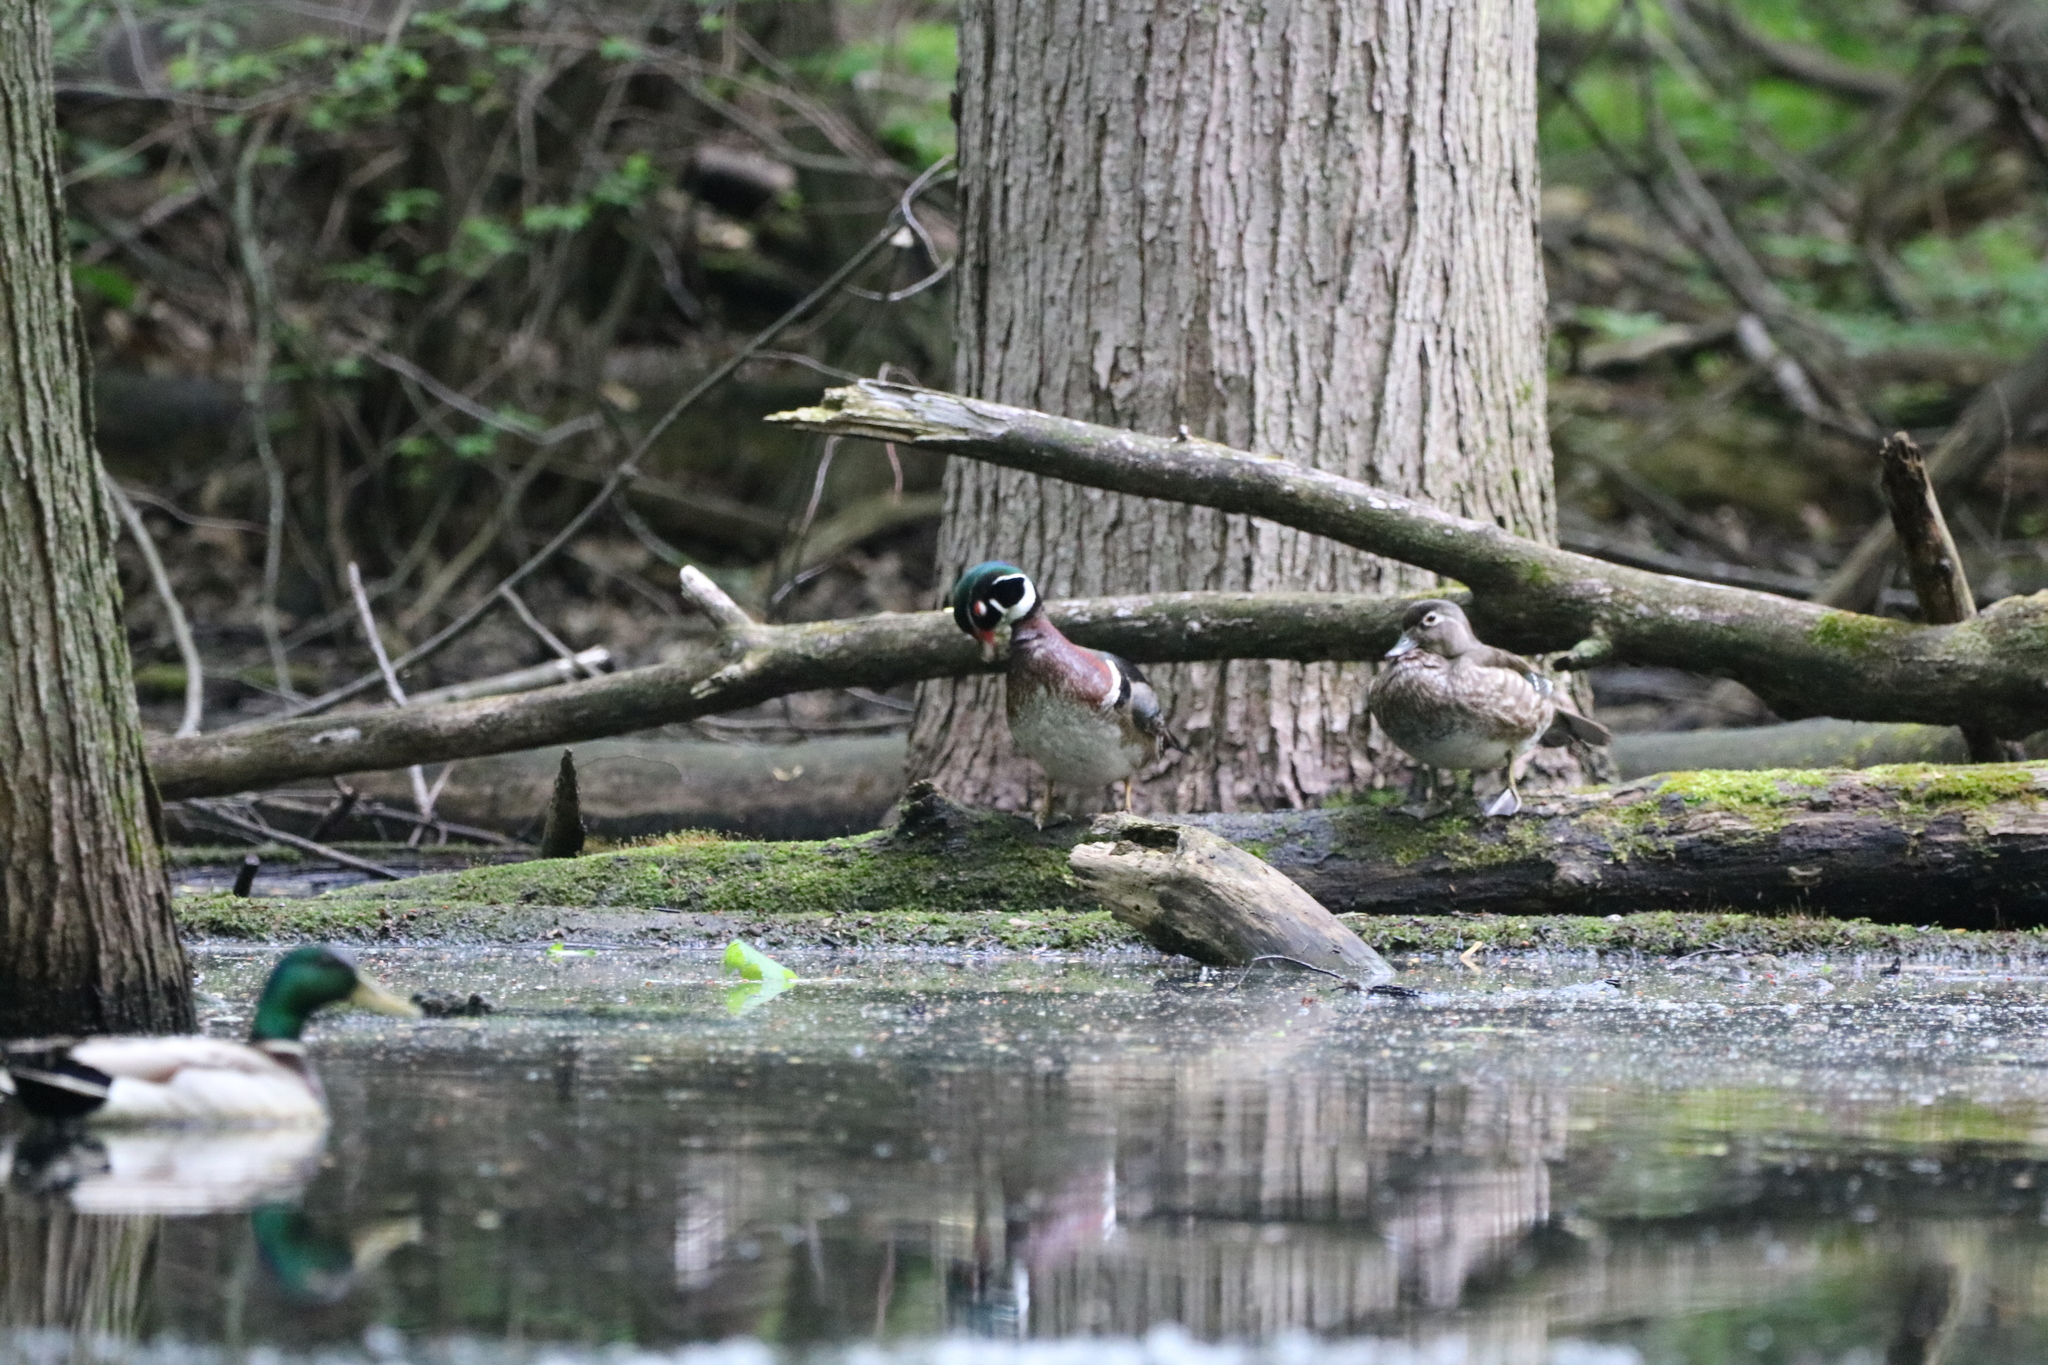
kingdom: Animalia
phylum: Chordata
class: Aves
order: Anseriformes
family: Anatidae
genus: Aix
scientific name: Aix sponsa
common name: Wood duck
